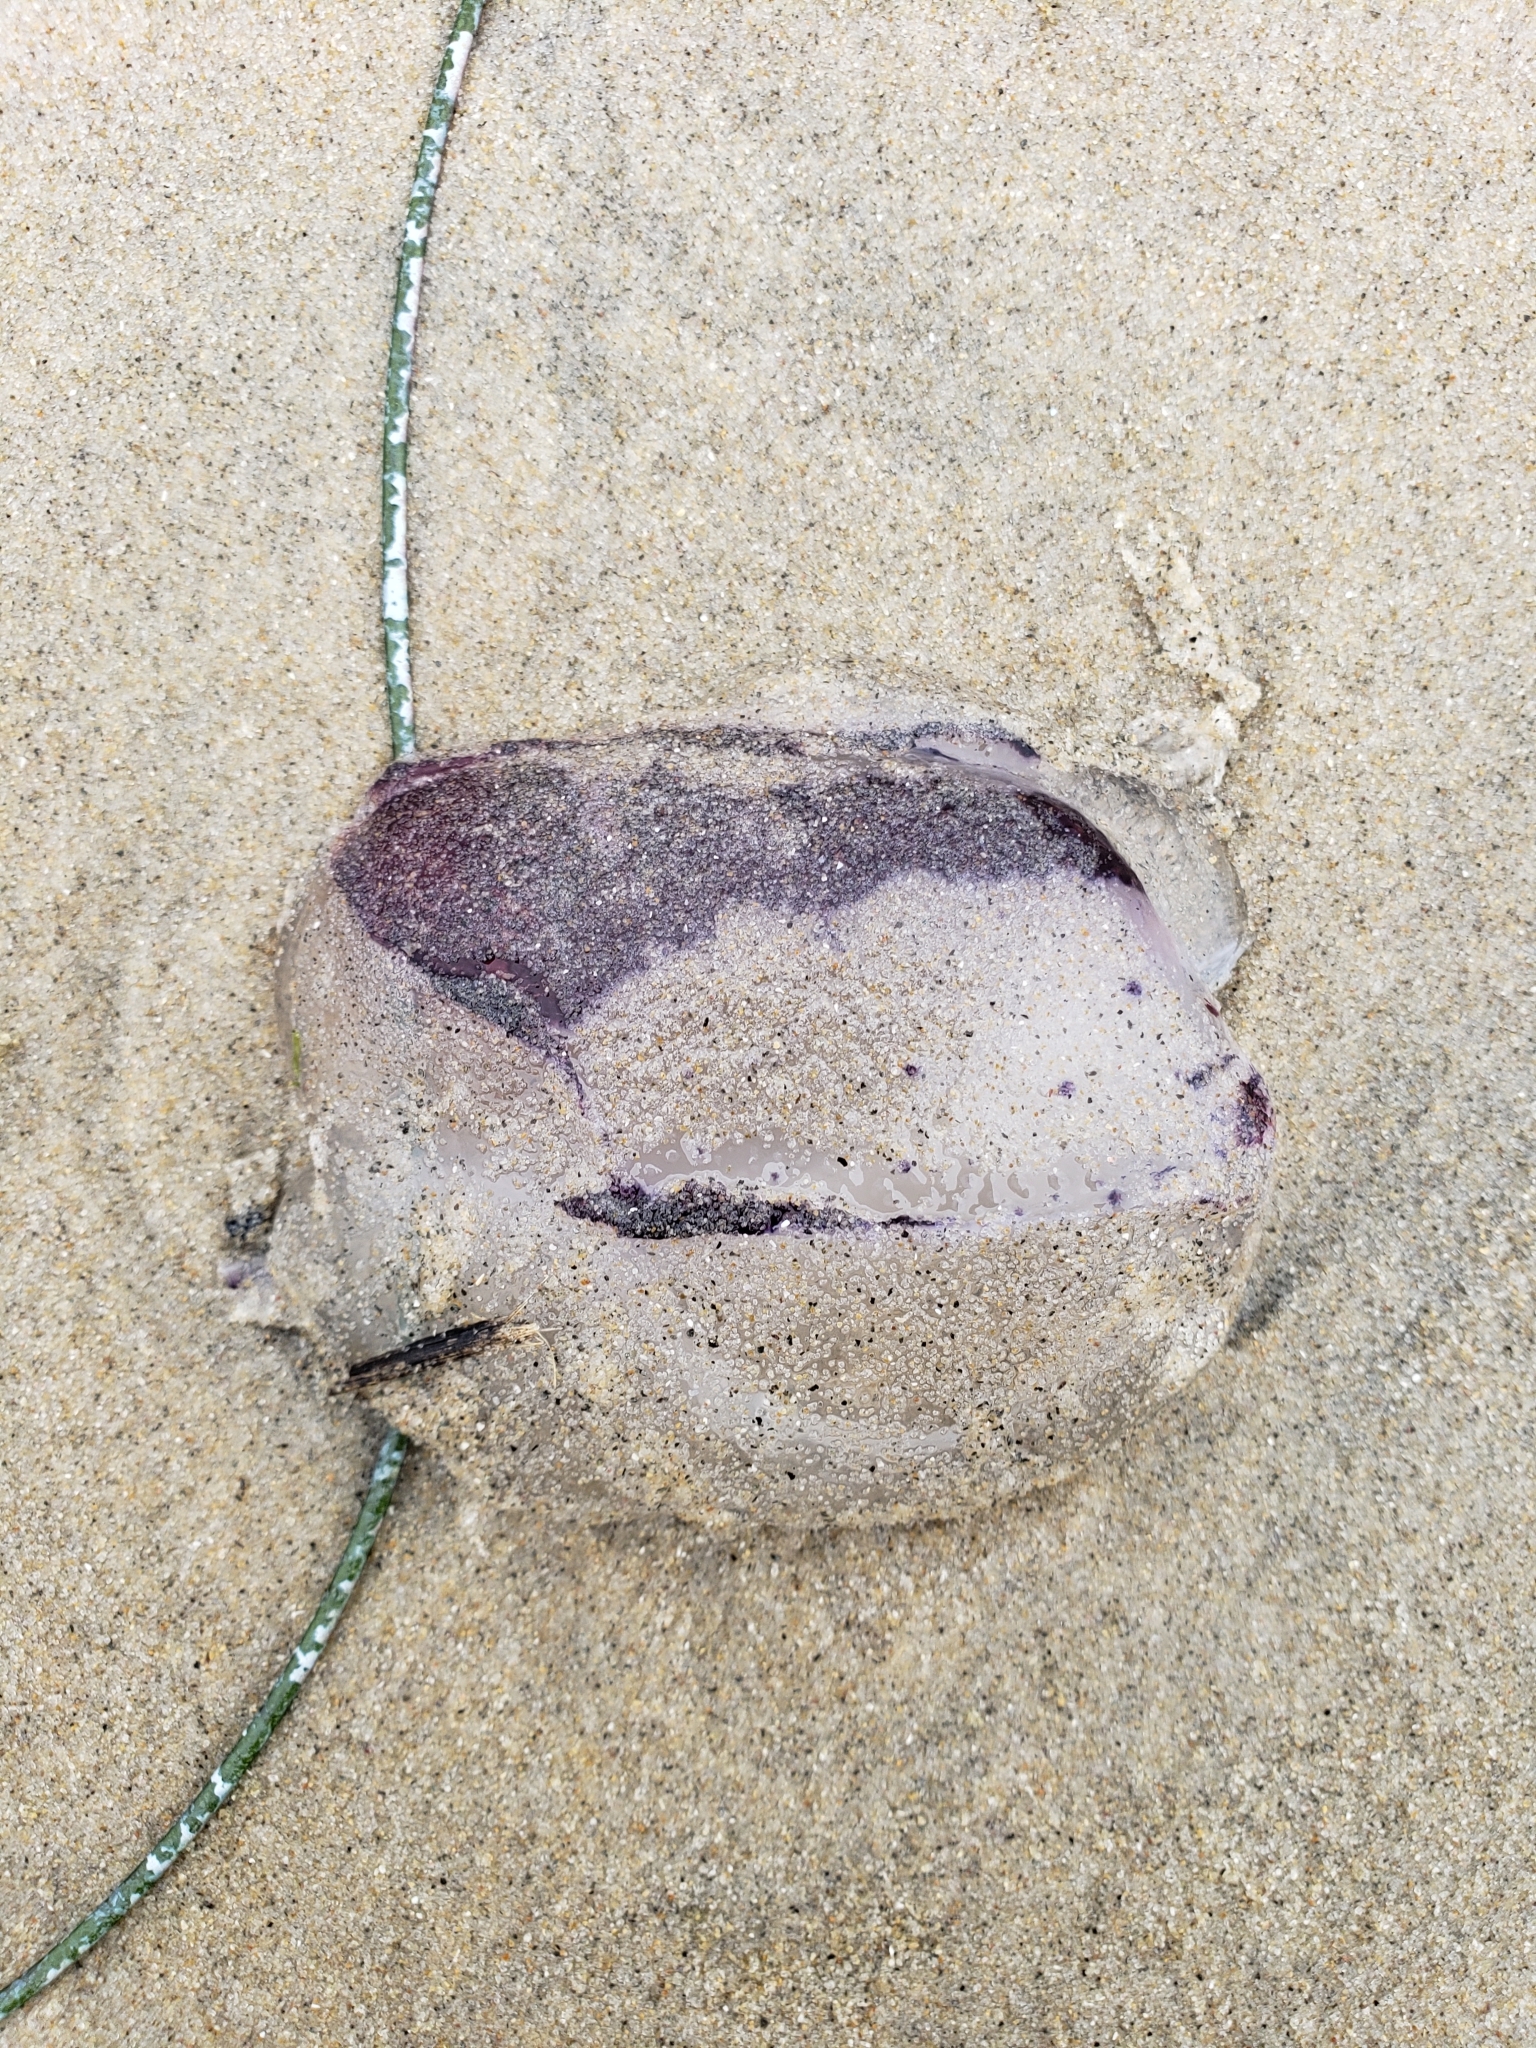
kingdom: Animalia
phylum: Cnidaria
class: Scyphozoa
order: Semaeostomeae
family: Pelagiidae
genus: Chrysaora
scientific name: Chrysaora colorata
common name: Purple-striped jellyfish
